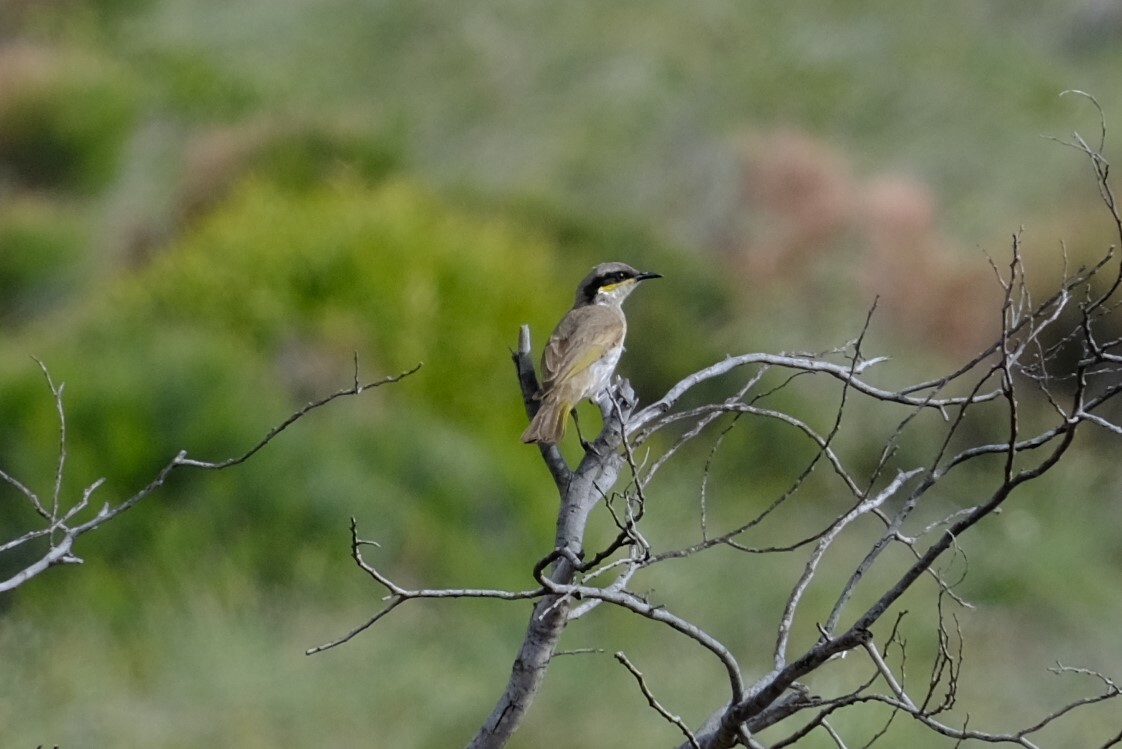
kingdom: Animalia
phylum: Chordata
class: Aves
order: Passeriformes
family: Meliphagidae
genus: Gavicalis
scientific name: Gavicalis virescens
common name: Singing honeyeater
